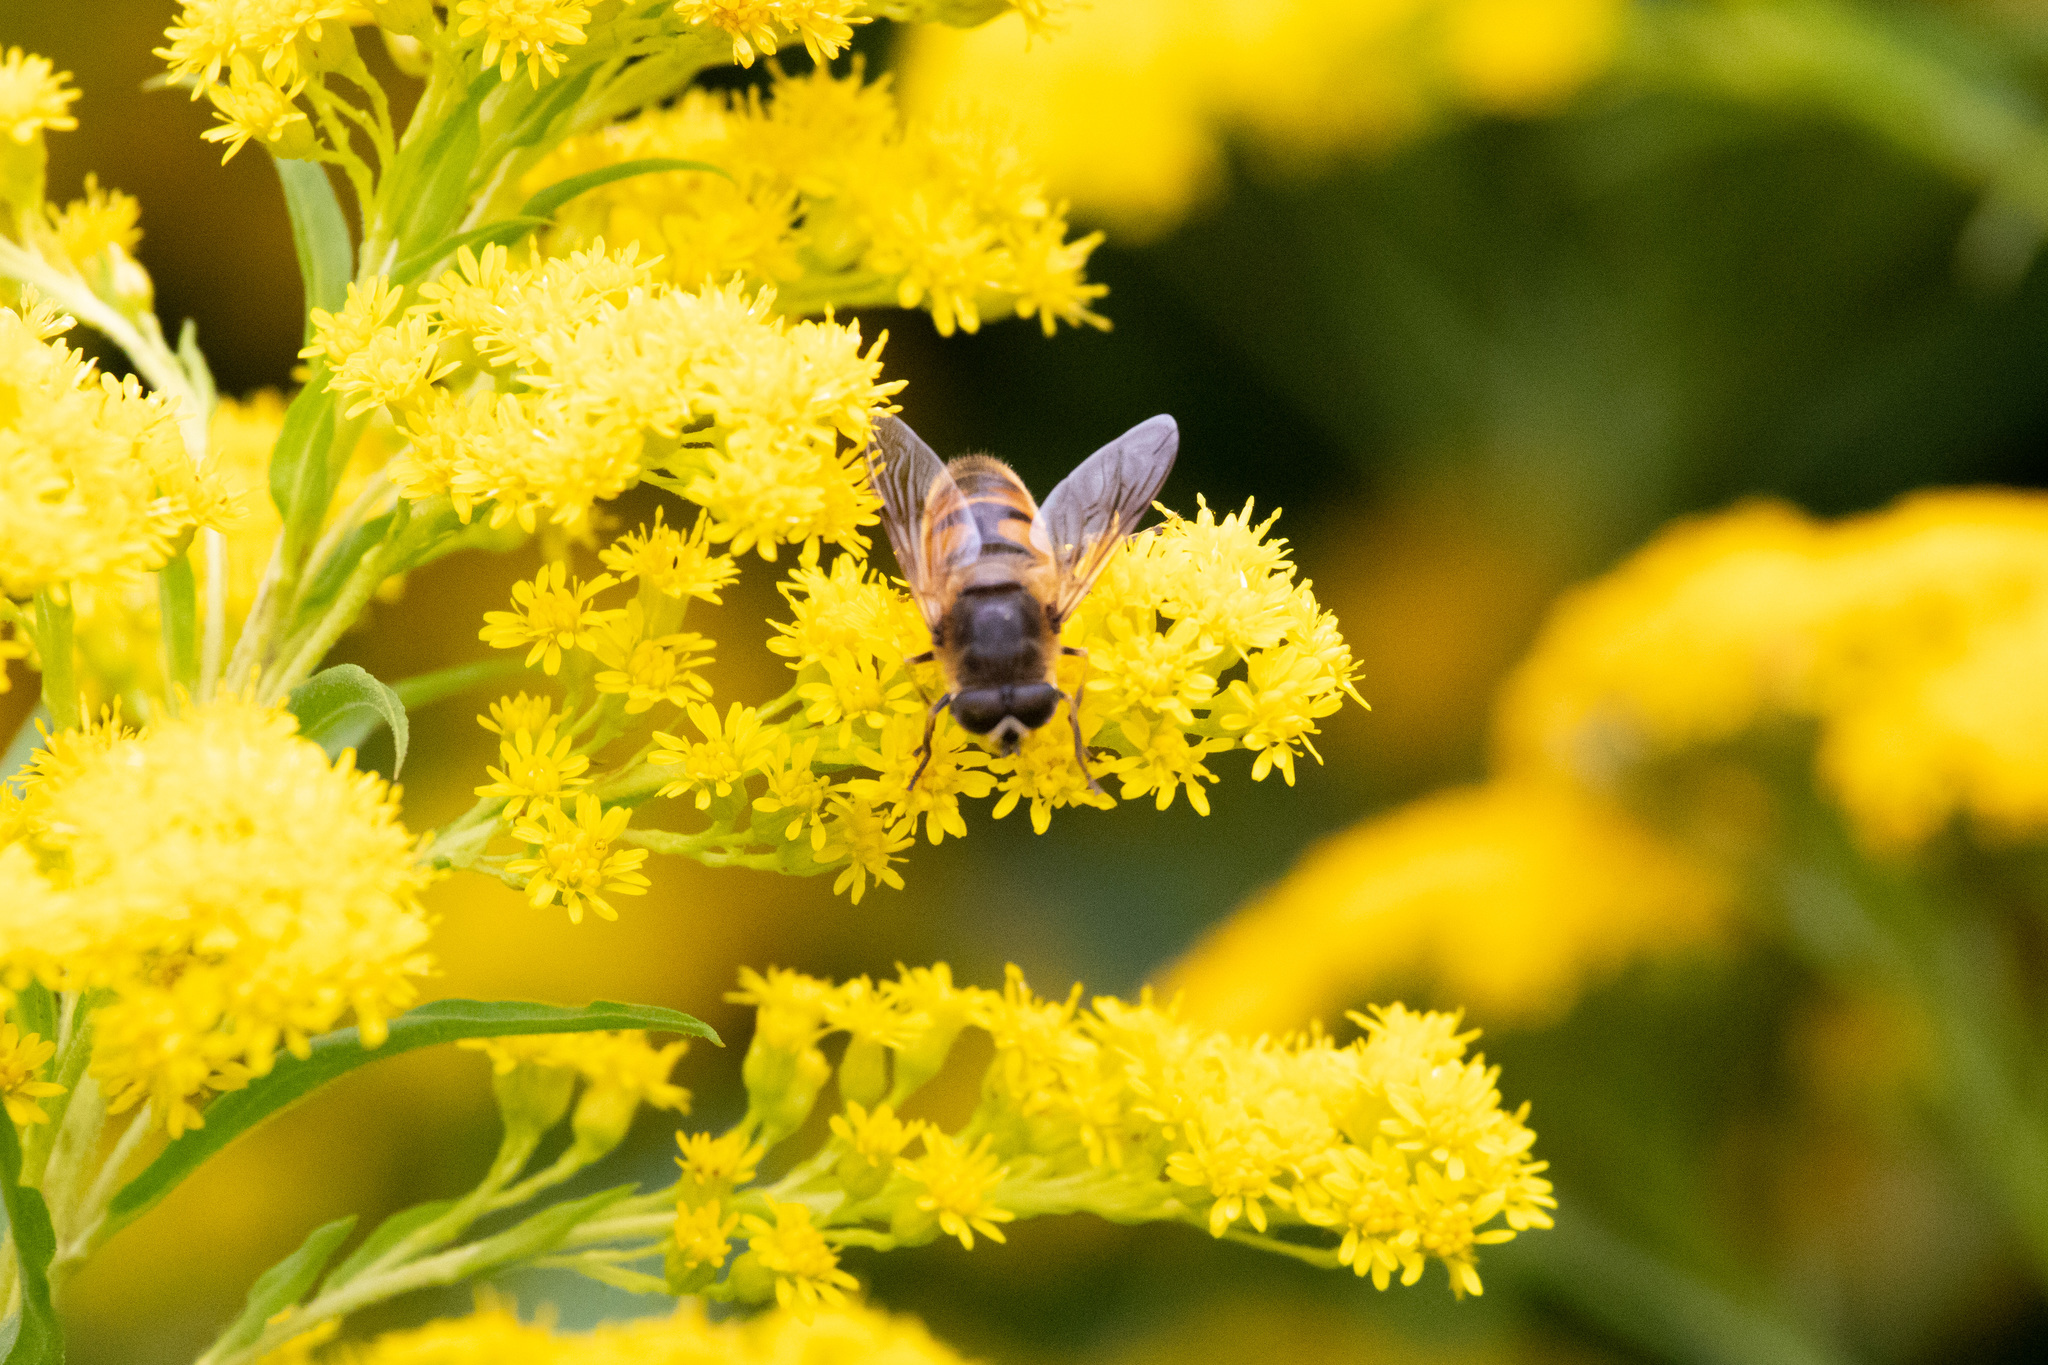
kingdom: Animalia
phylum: Arthropoda
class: Insecta
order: Diptera
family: Syrphidae
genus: Eristalis
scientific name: Eristalis tenax
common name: Drone fly
